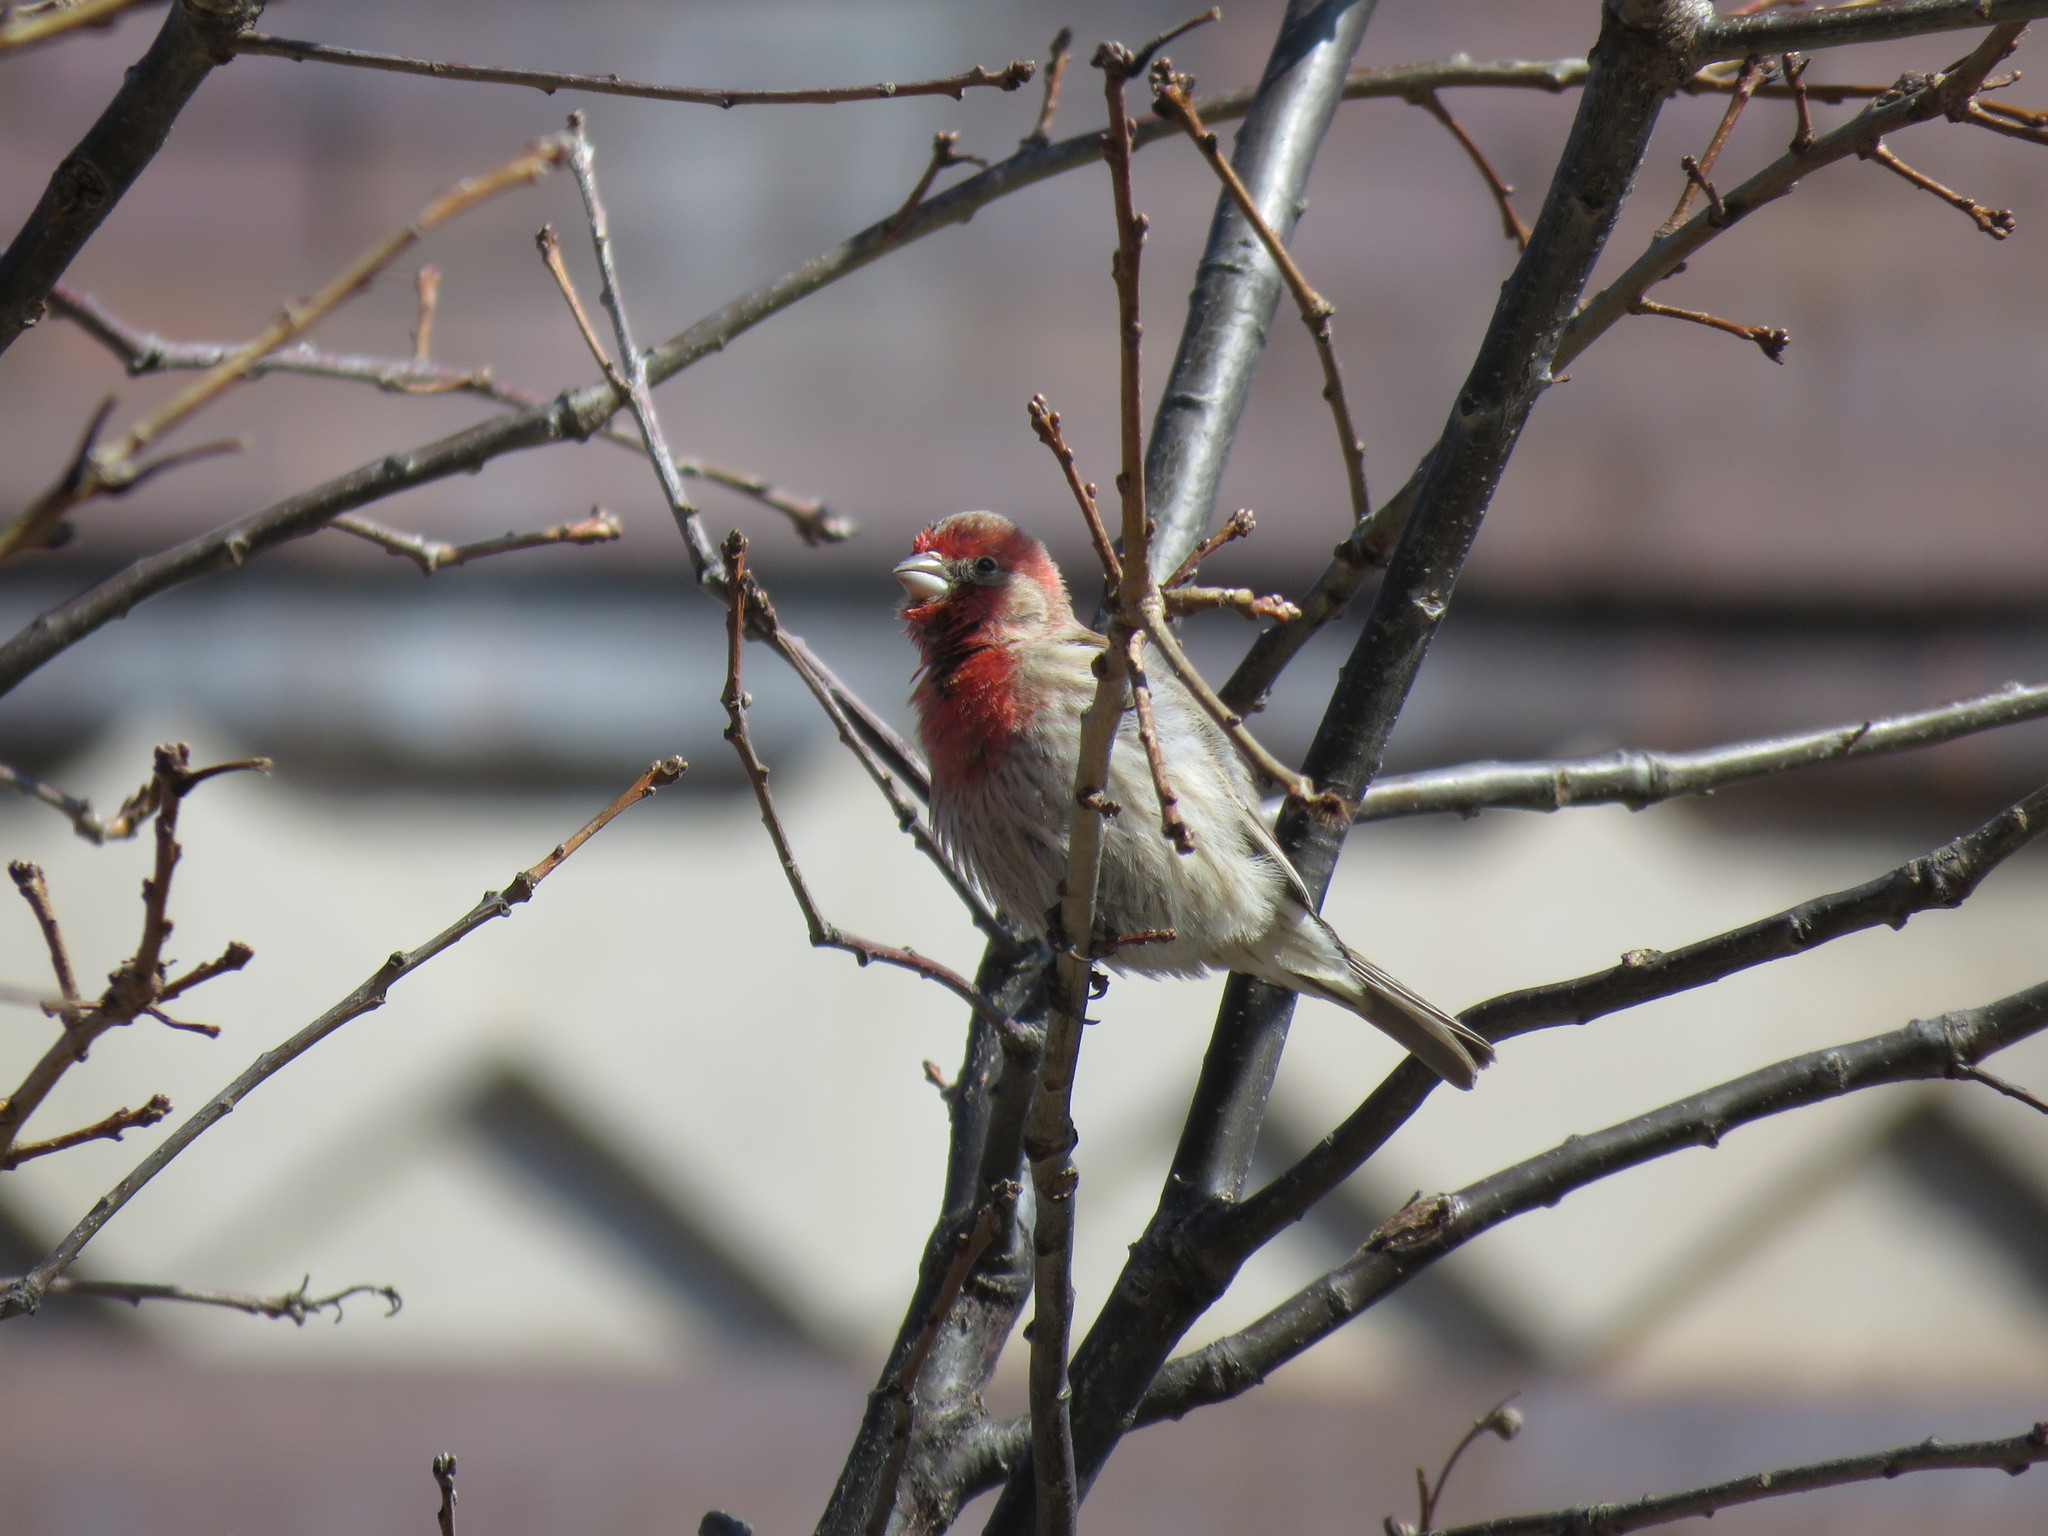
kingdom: Animalia
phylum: Chordata
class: Aves
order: Passeriformes
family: Fringillidae
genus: Haemorhous
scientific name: Haemorhous mexicanus
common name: House finch
